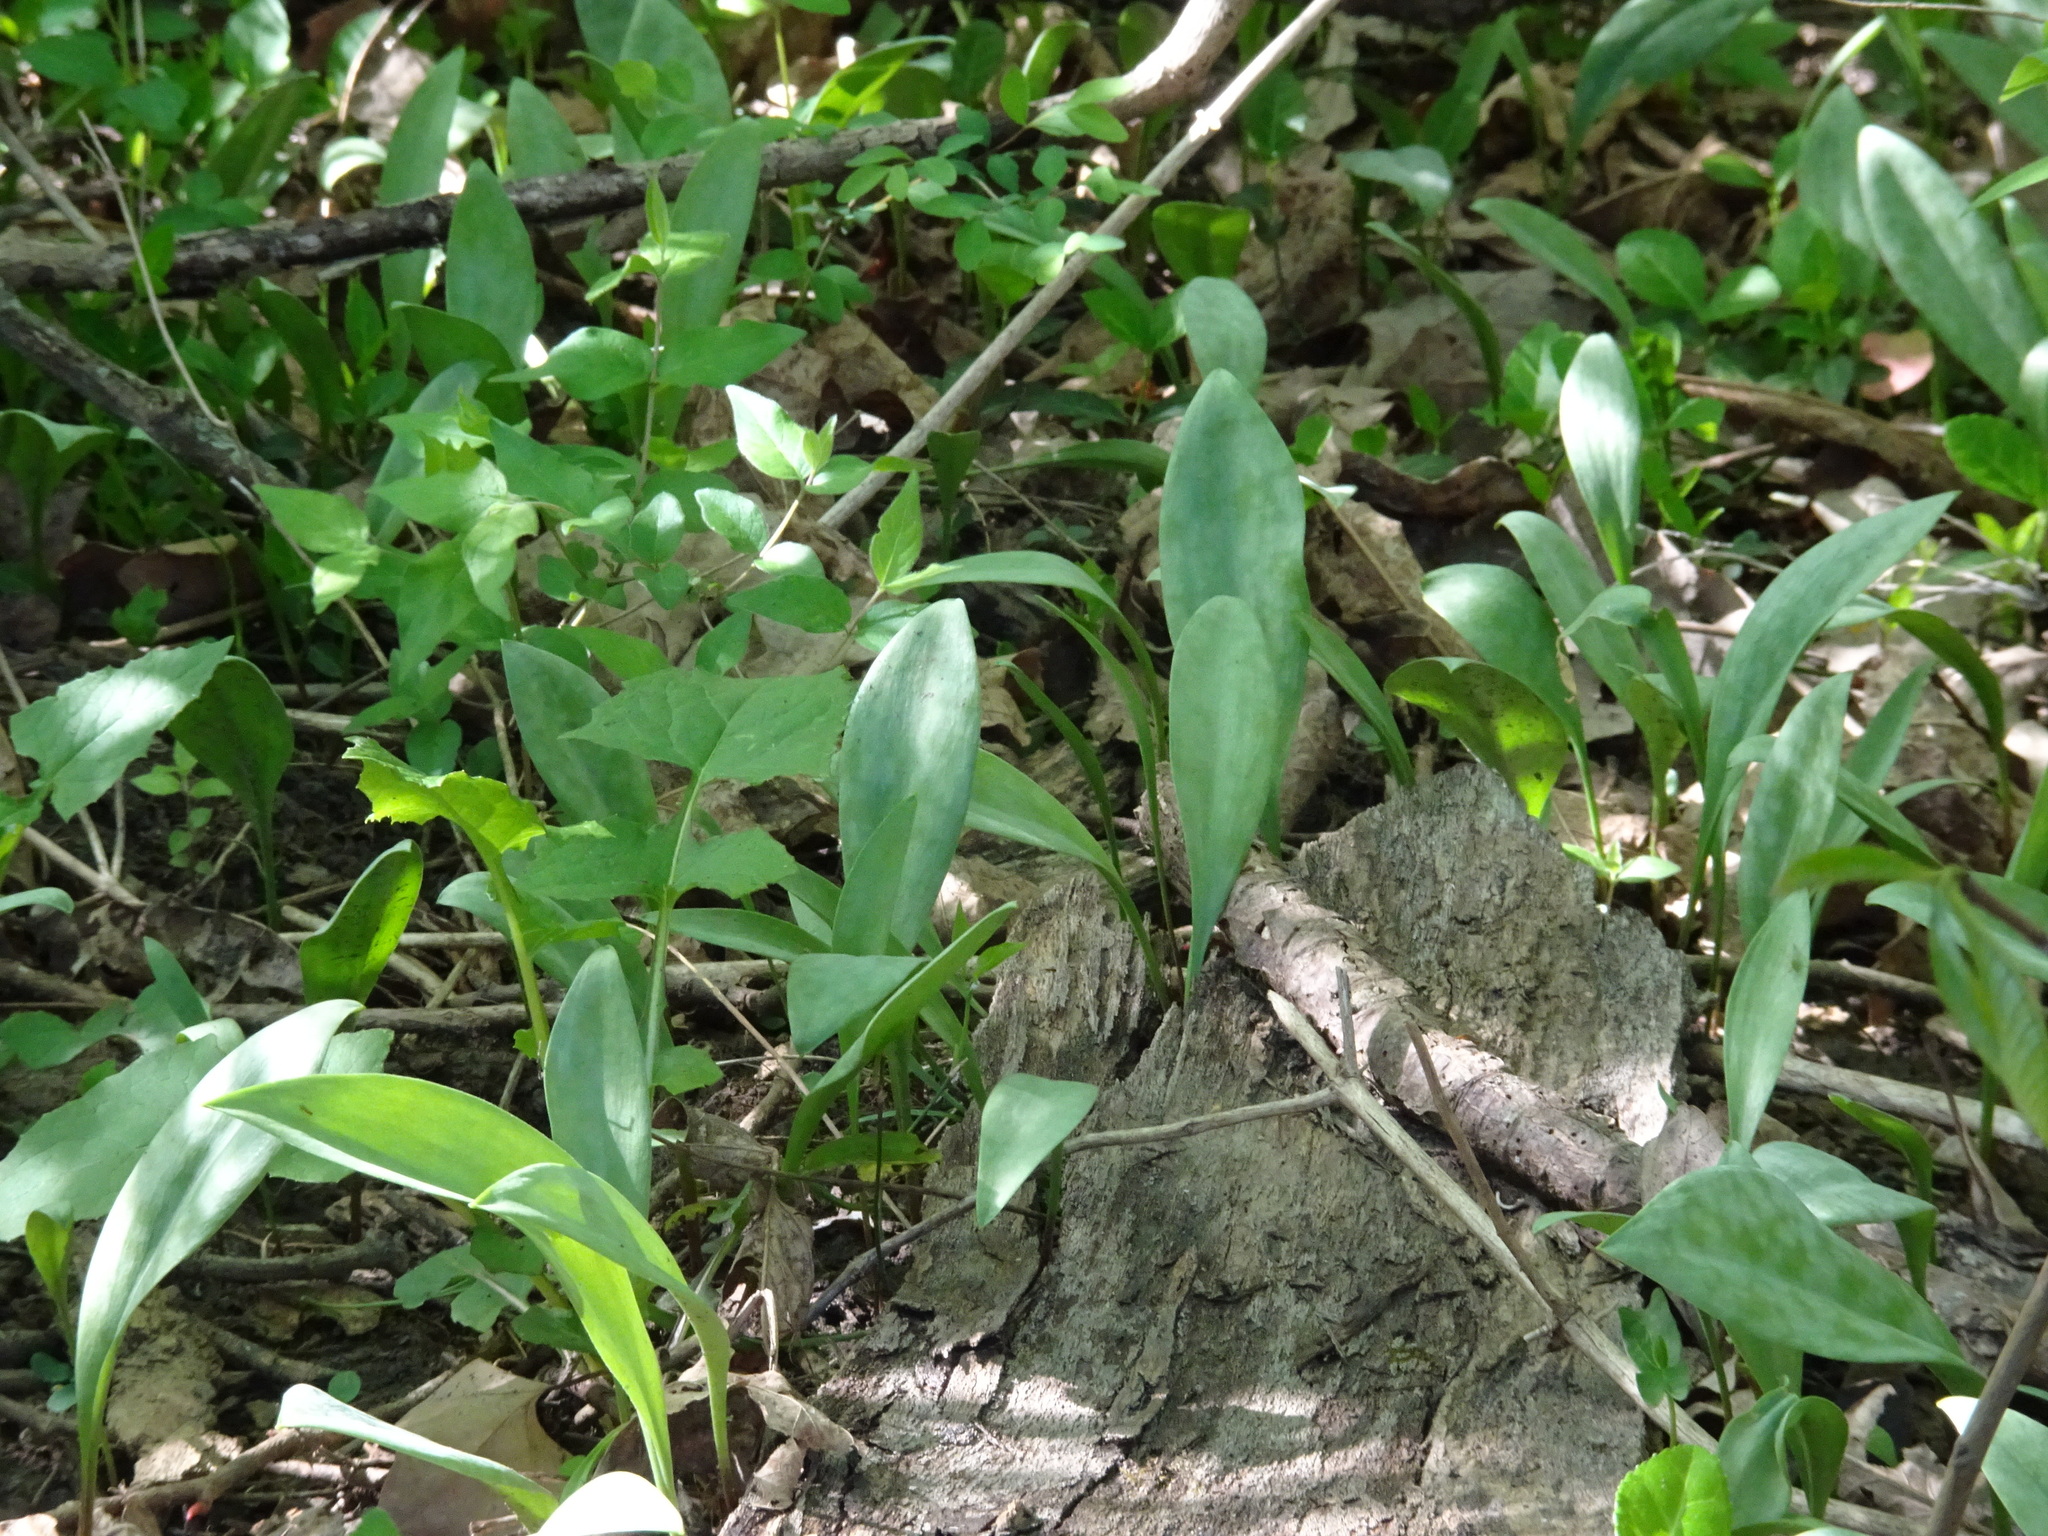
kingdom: Plantae
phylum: Tracheophyta
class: Liliopsida
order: Liliales
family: Liliaceae
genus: Erythronium
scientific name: Erythronium albidum
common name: White trout-lily
